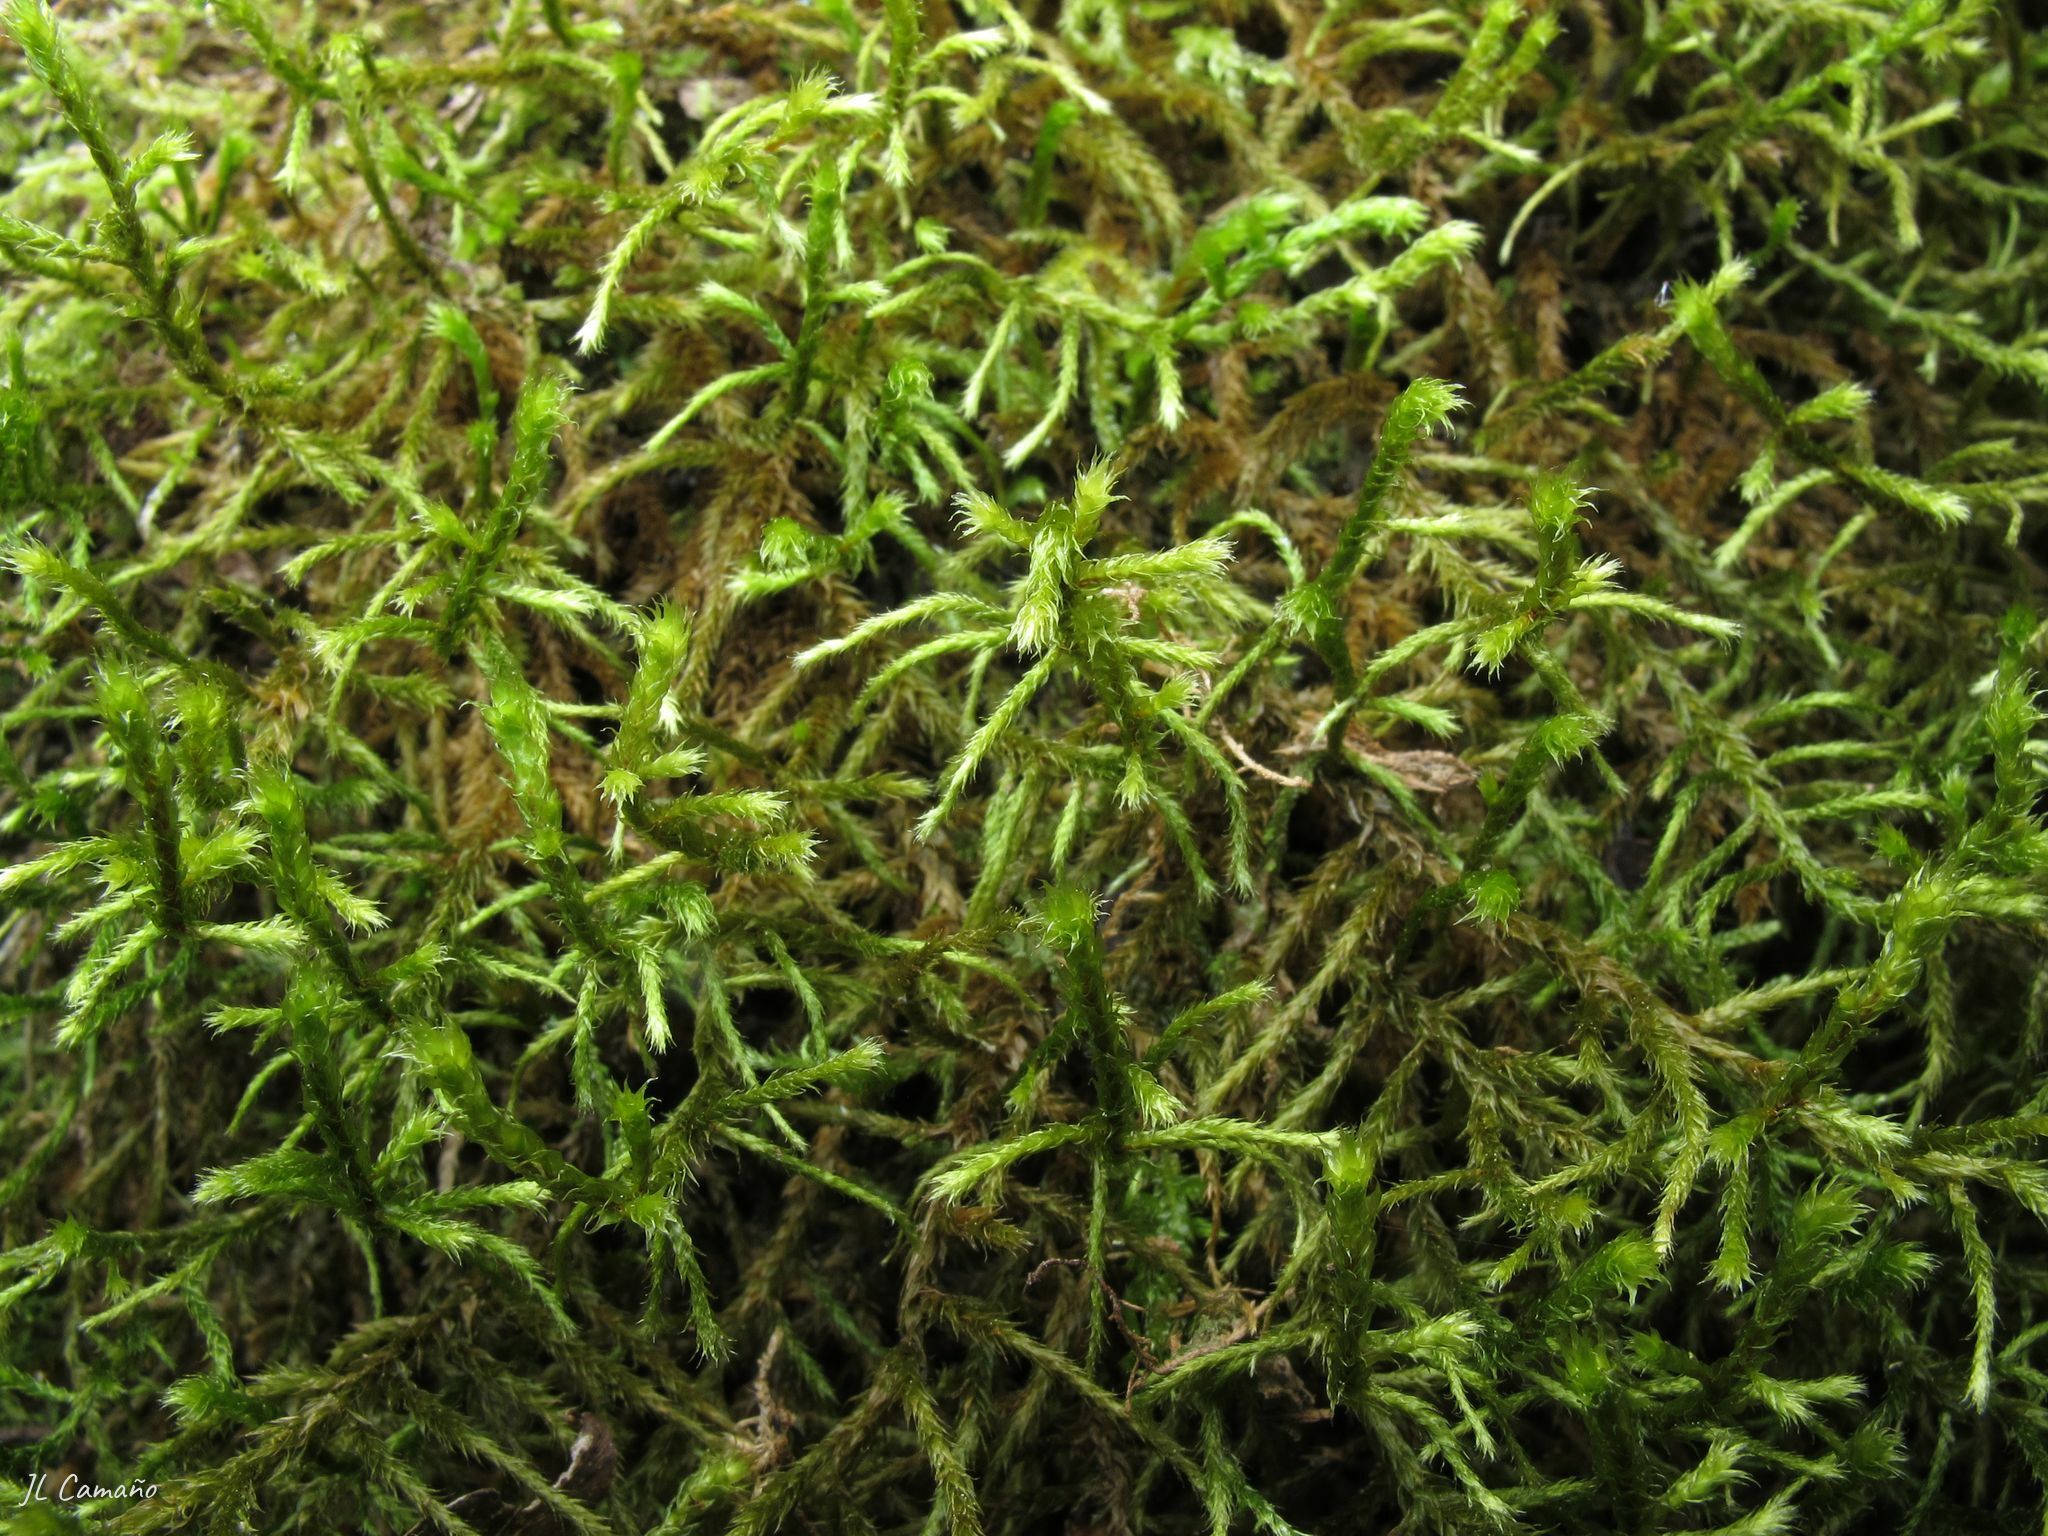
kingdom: Plantae
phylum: Bryophyta
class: Bryopsida
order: Hypnales
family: Antitrichiaceae
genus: Antitrichia
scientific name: Antitrichia curtipendula
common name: Pendulous wing-moss
